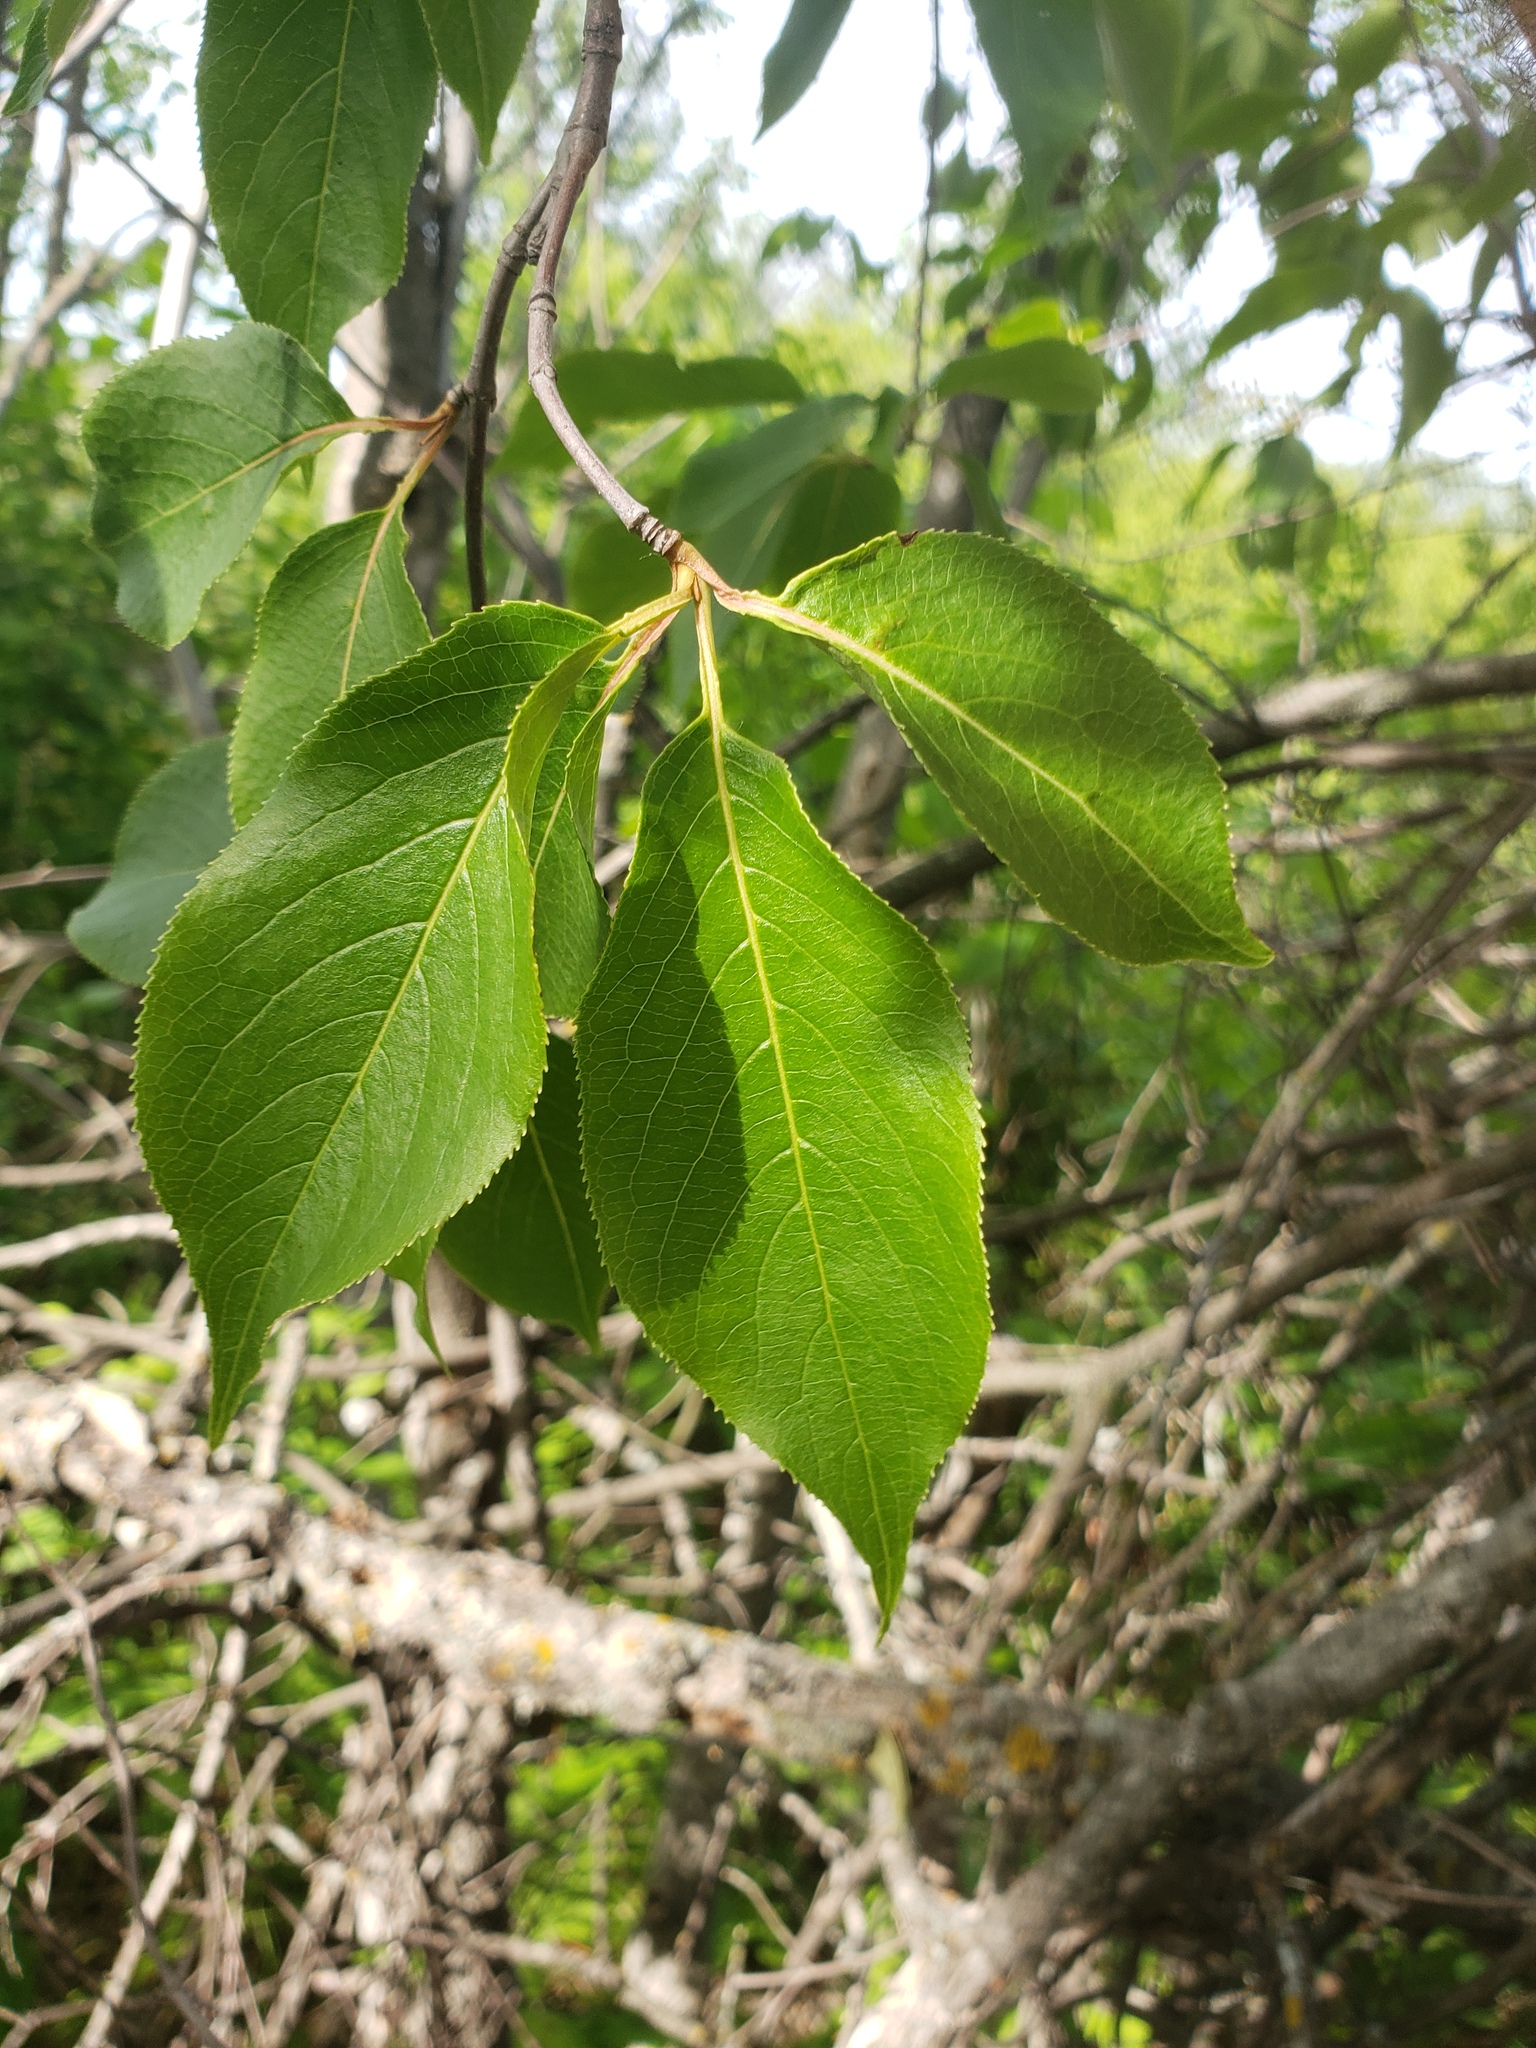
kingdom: Plantae
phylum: Tracheophyta
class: Magnoliopsida
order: Dipsacales
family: Viburnaceae
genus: Viburnum
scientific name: Viburnum lentago
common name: Black haw
